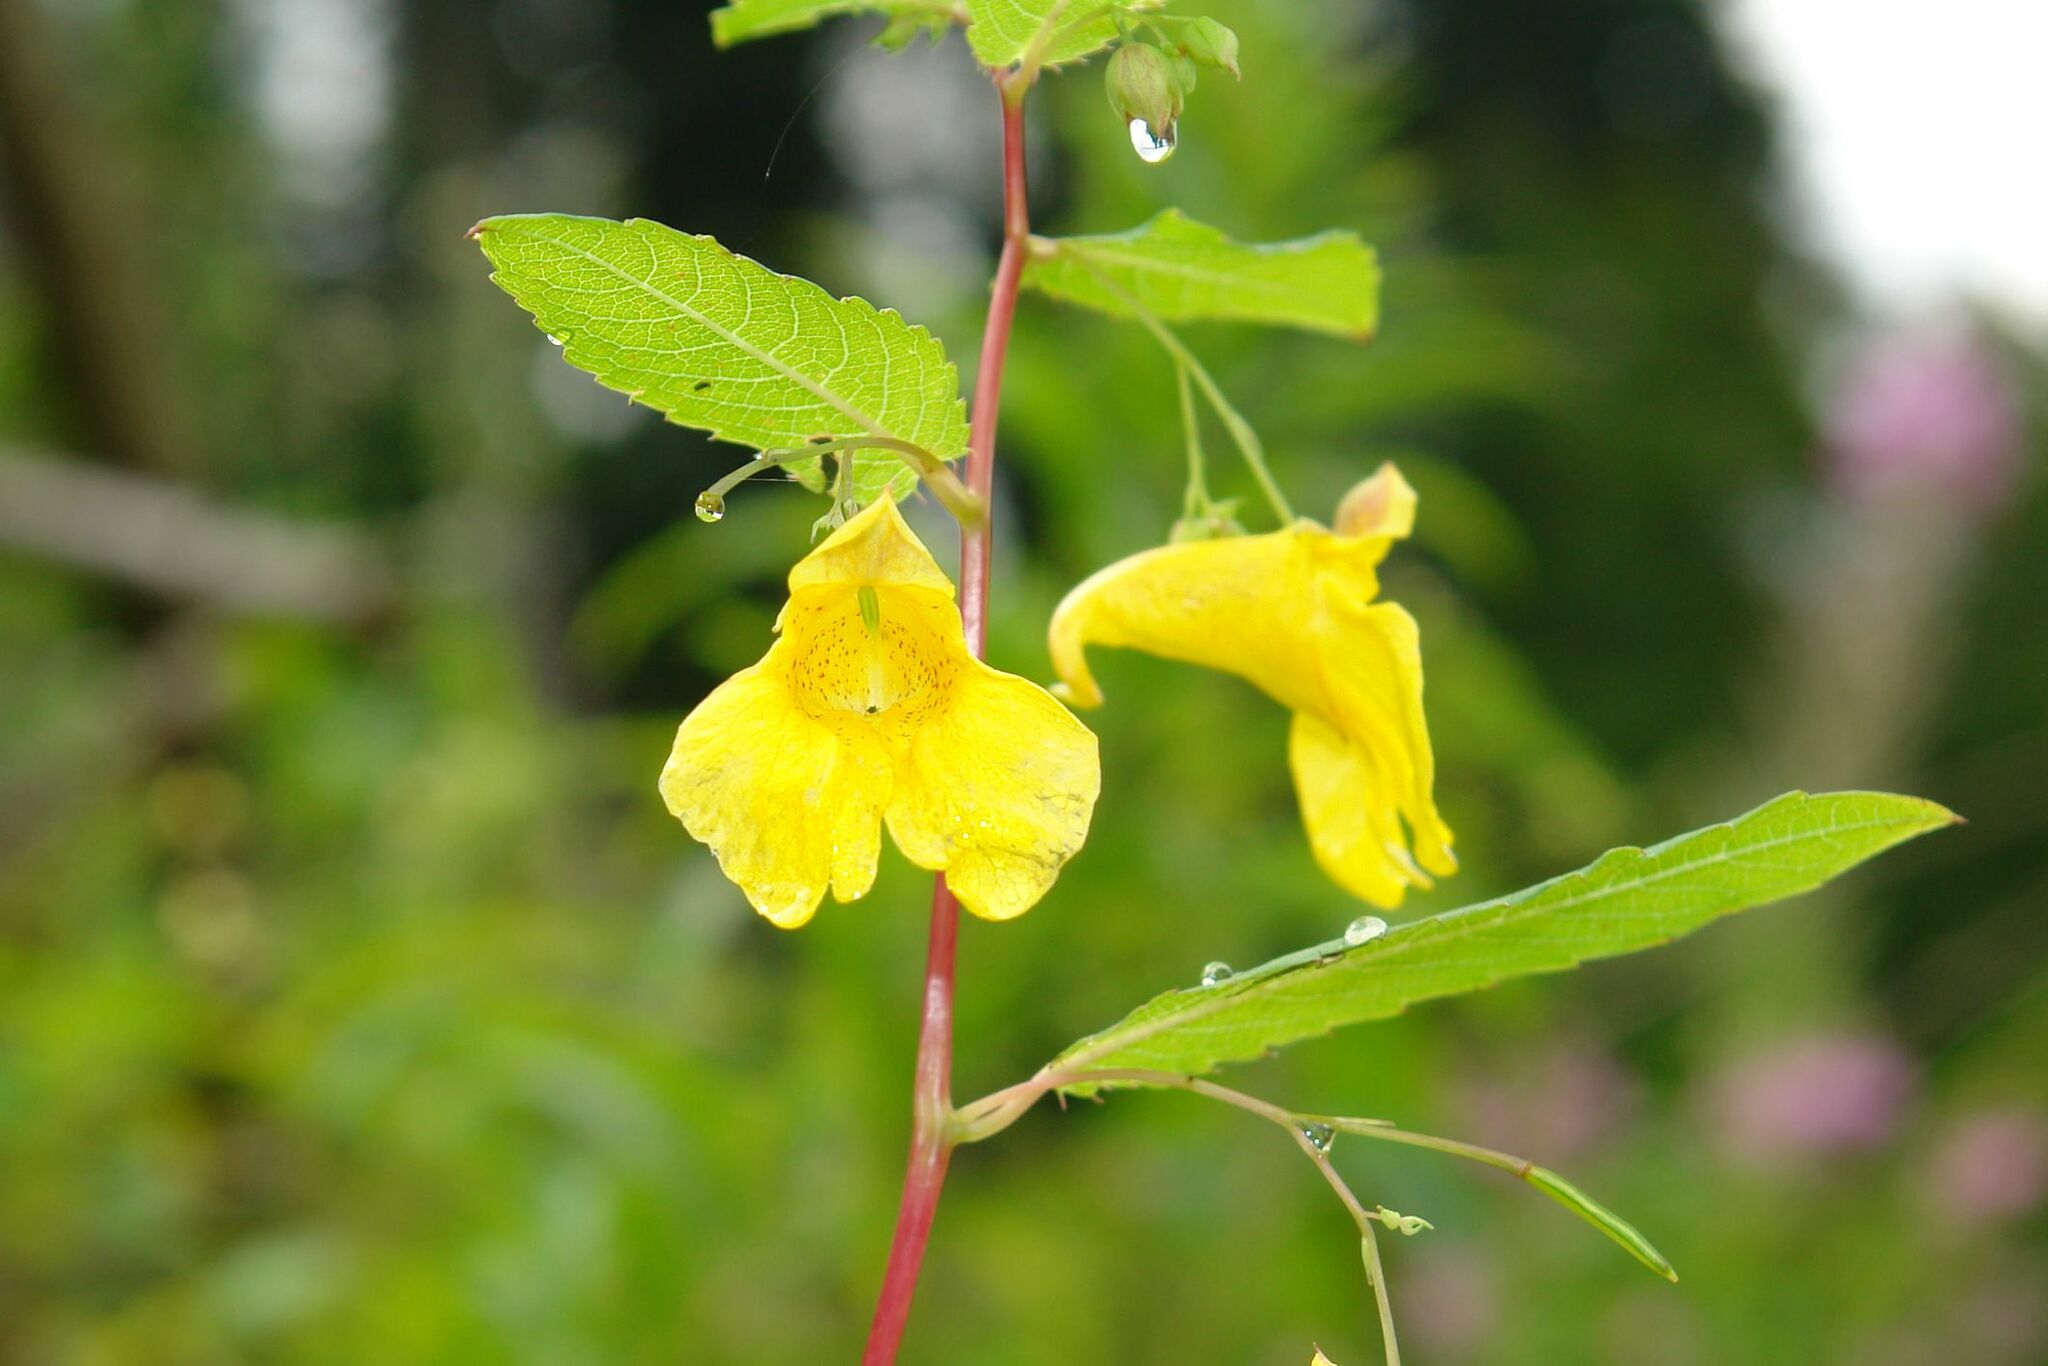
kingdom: Plantae
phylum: Tracheophyta
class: Magnoliopsida
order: Ericales
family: Balsaminaceae
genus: Impatiens
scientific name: Impatiens noli-tangere
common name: Touch-me-not balsam
